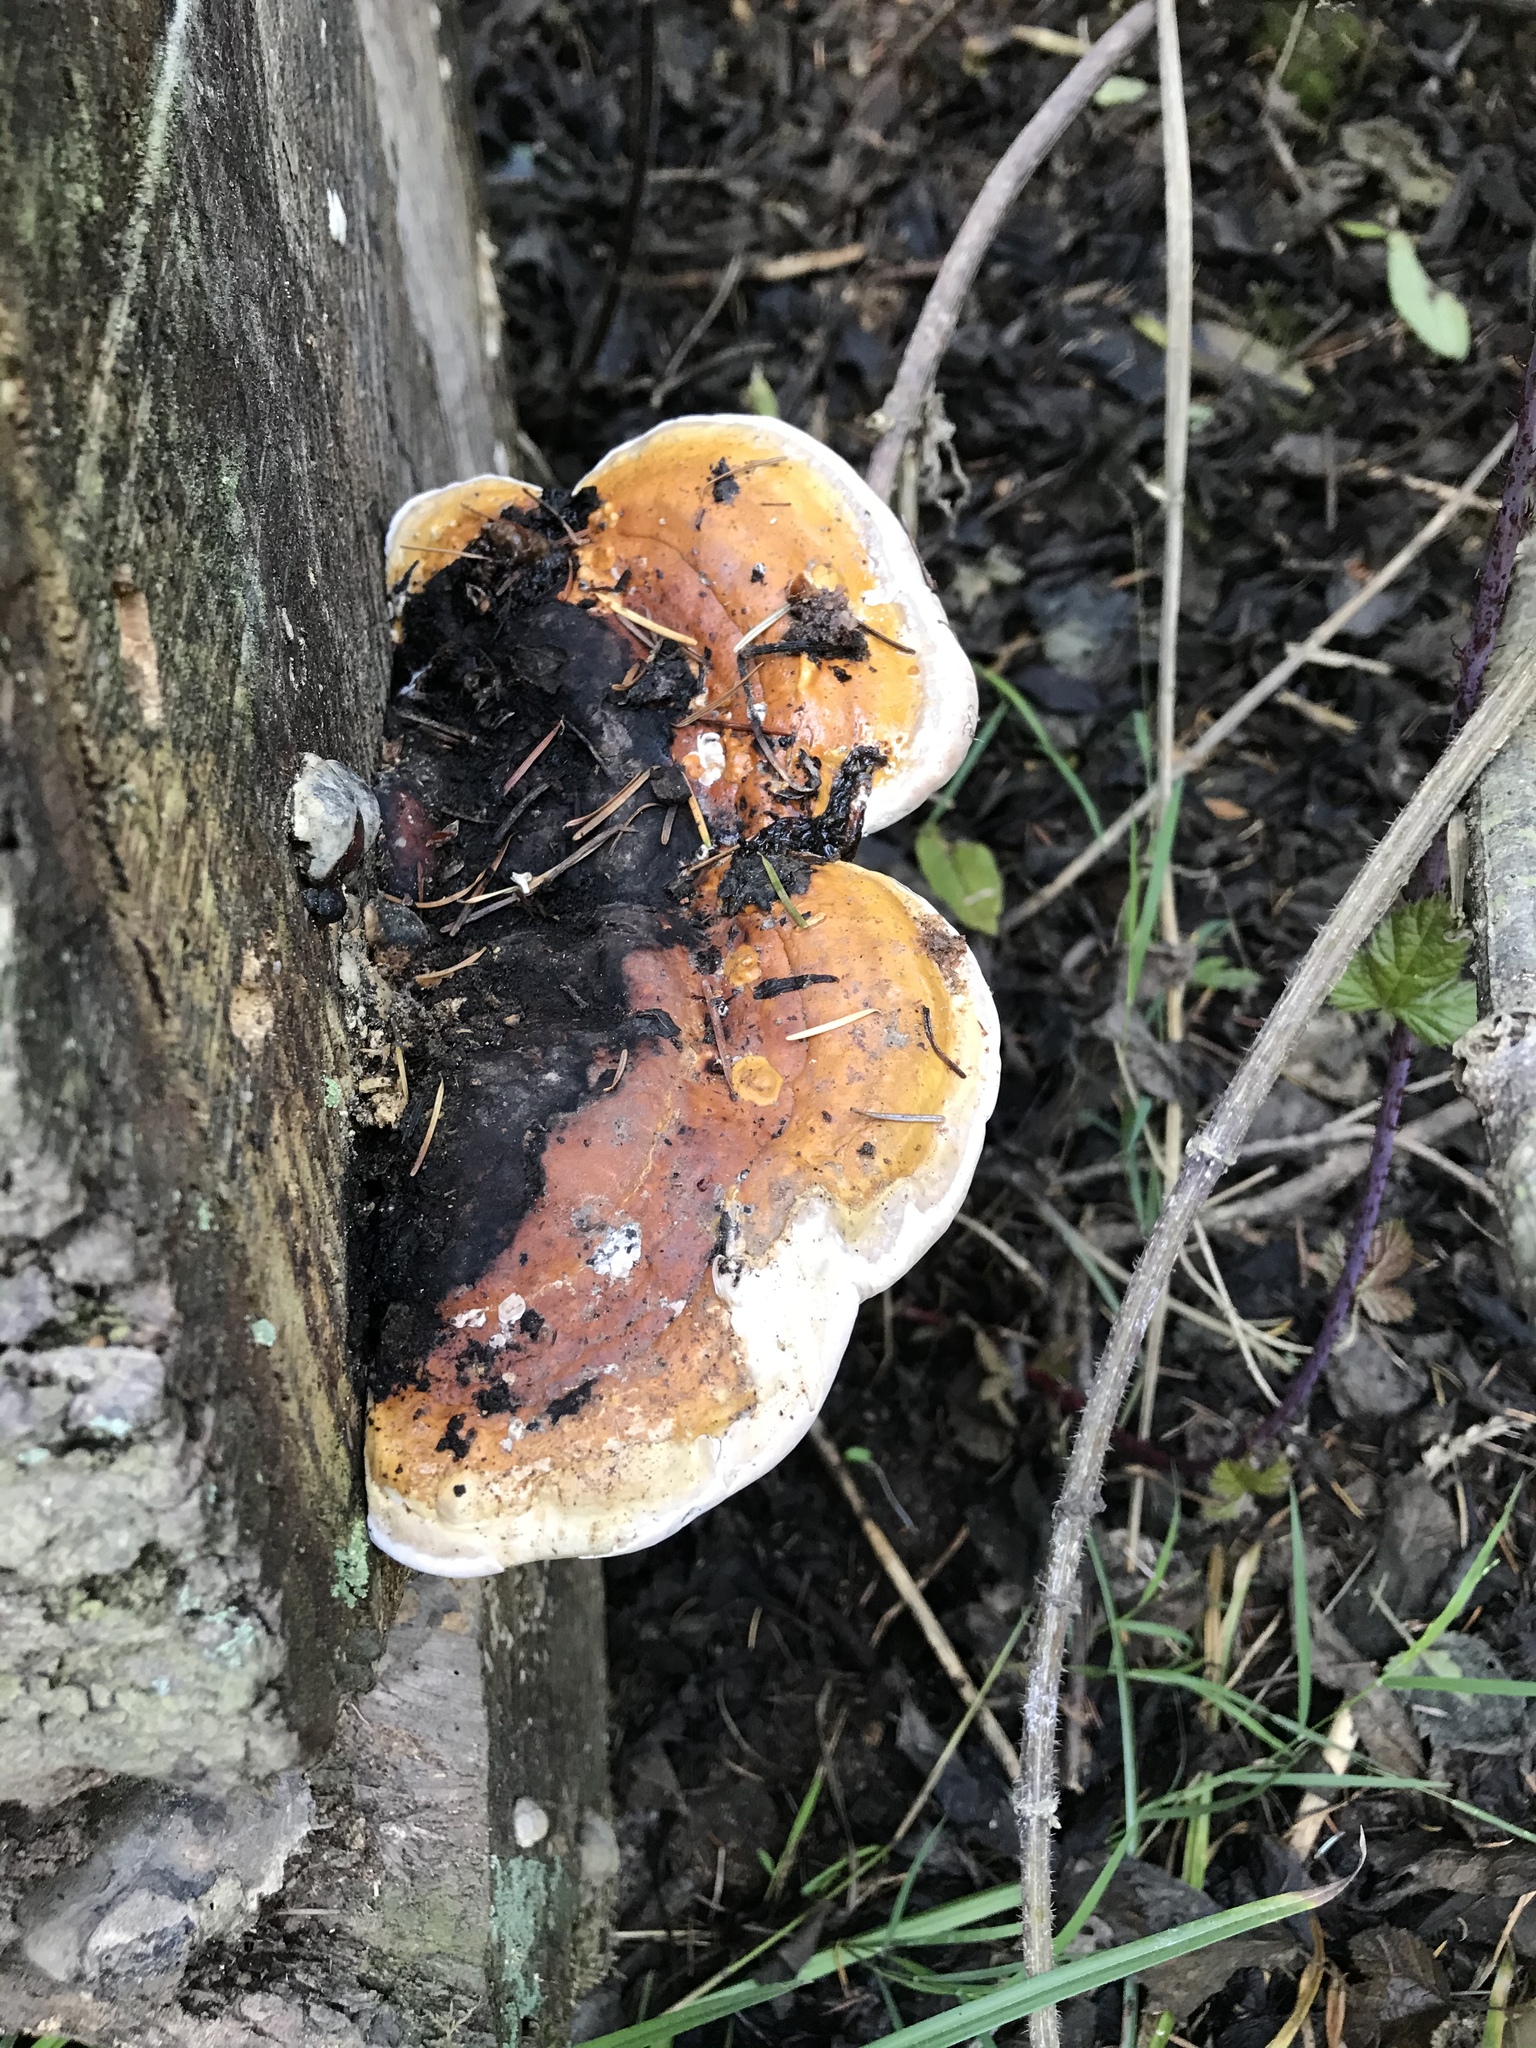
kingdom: Fungi
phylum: Basidiomycota
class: Agaricomycetes
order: Polyporales
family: Fomitopsidaceae
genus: Fomitopsis
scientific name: Fomitopsis mounceae
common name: Northern red belt
